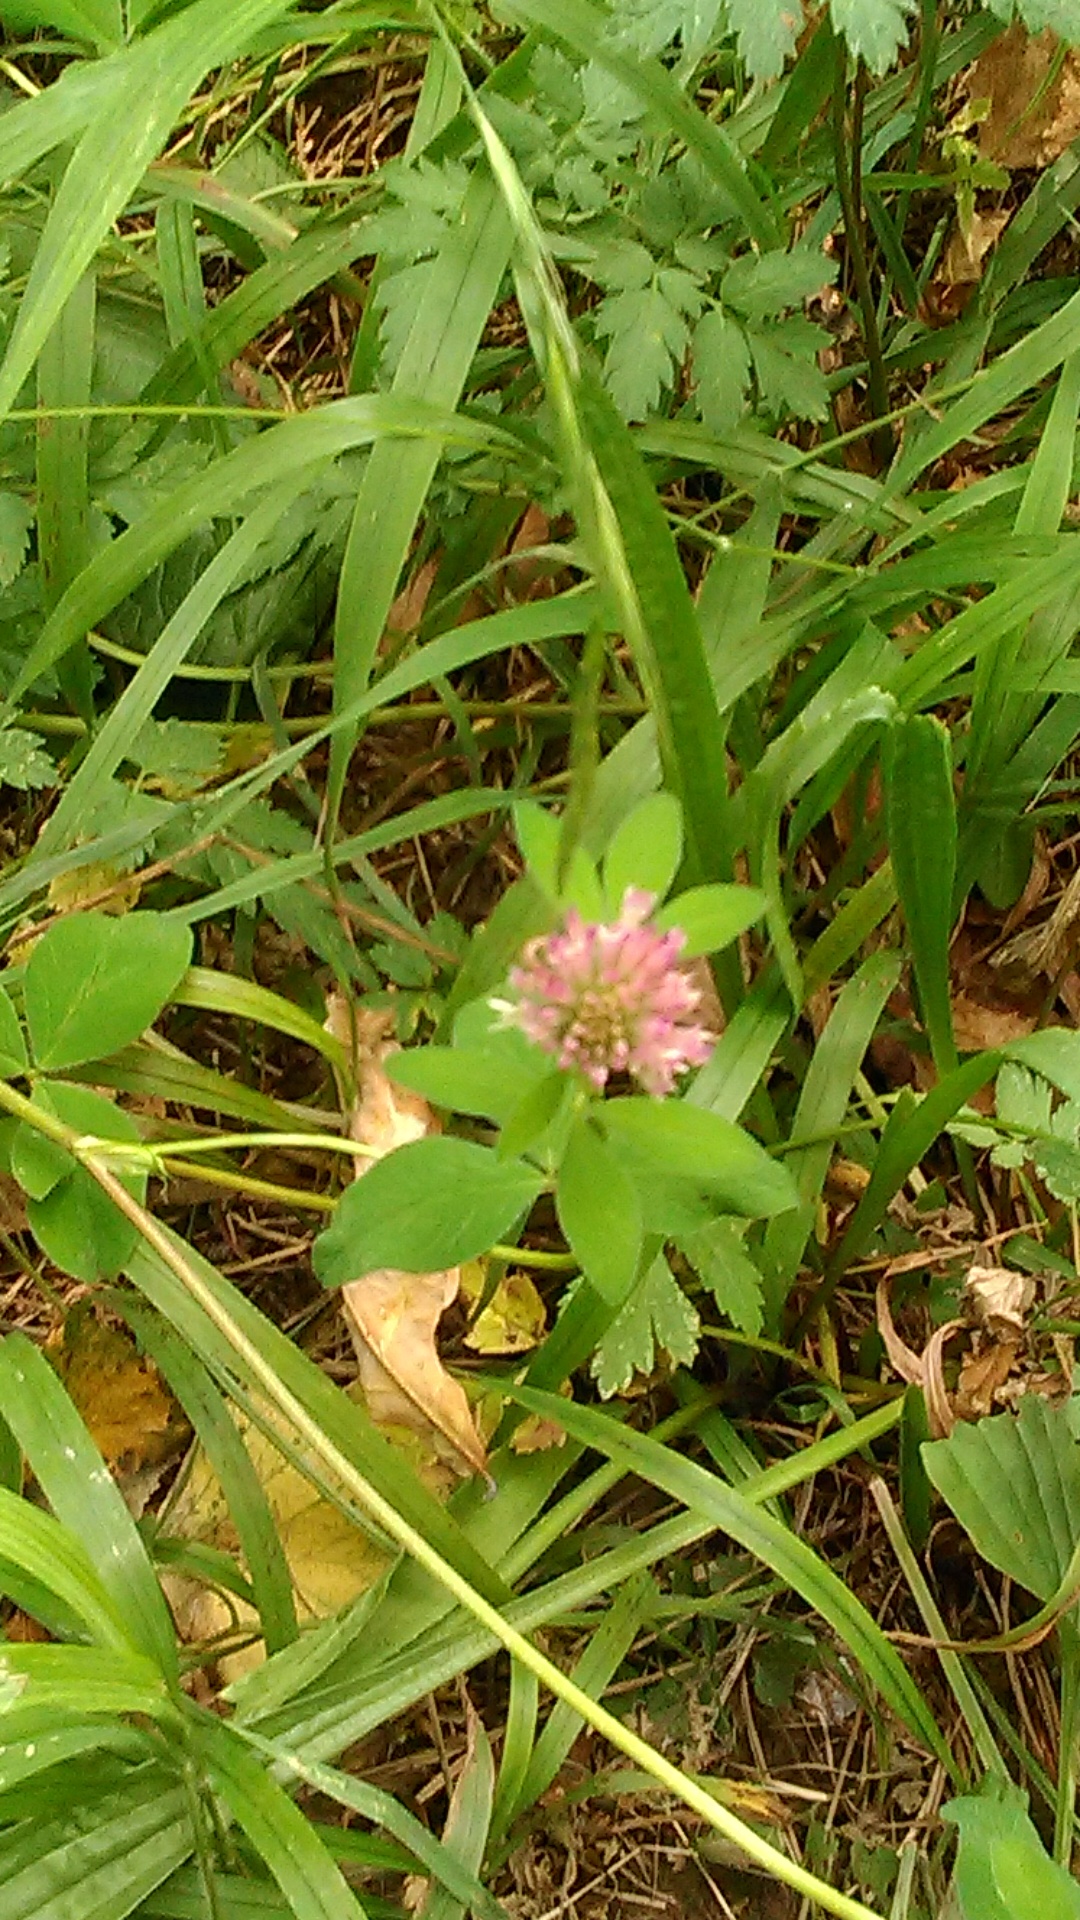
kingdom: Plantae
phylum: Tracheophyta
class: Magnoliopsida
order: Fabales
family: Fabaceae
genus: Trifolium
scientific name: Trifolium pratense
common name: Red clover
